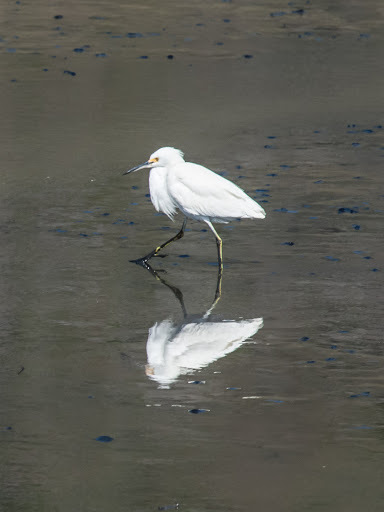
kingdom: Animalia
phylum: Chordata
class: Aves
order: Pelecaniformes
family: Ardeidae
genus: Egretta
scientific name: Egretta thula
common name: Snowy egret
